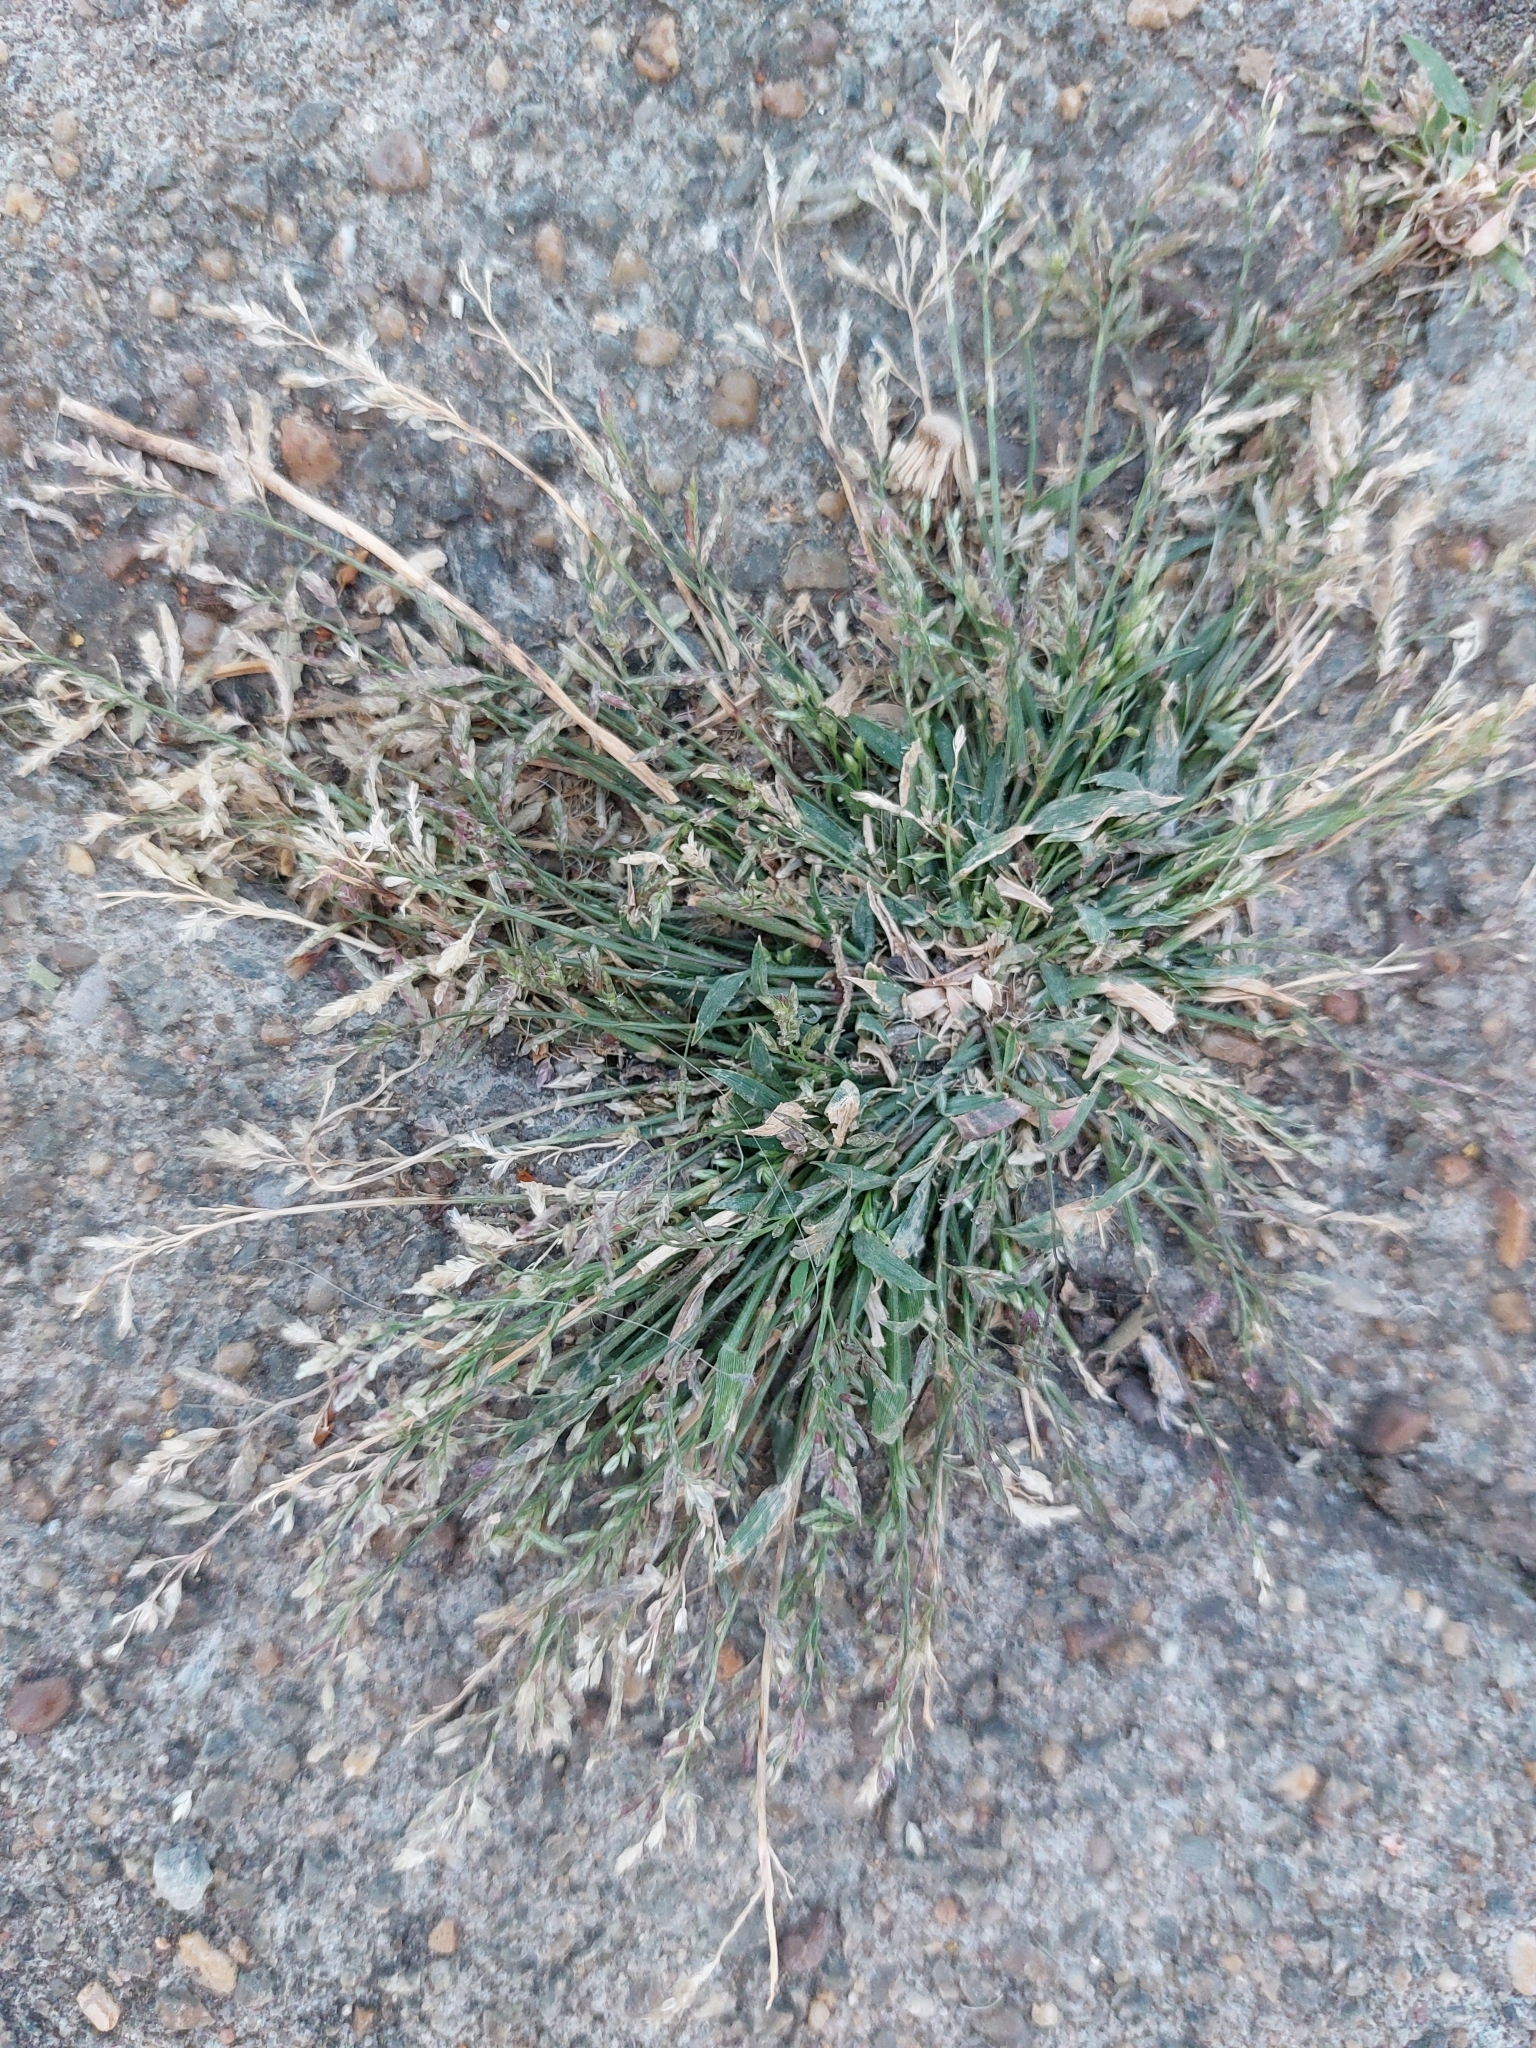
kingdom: Plantae
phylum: Tracheophyta
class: Liliopsida
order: Poales
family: Poaceae
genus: Eragrostis
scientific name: Eragrostis minor
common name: Small love-grass
